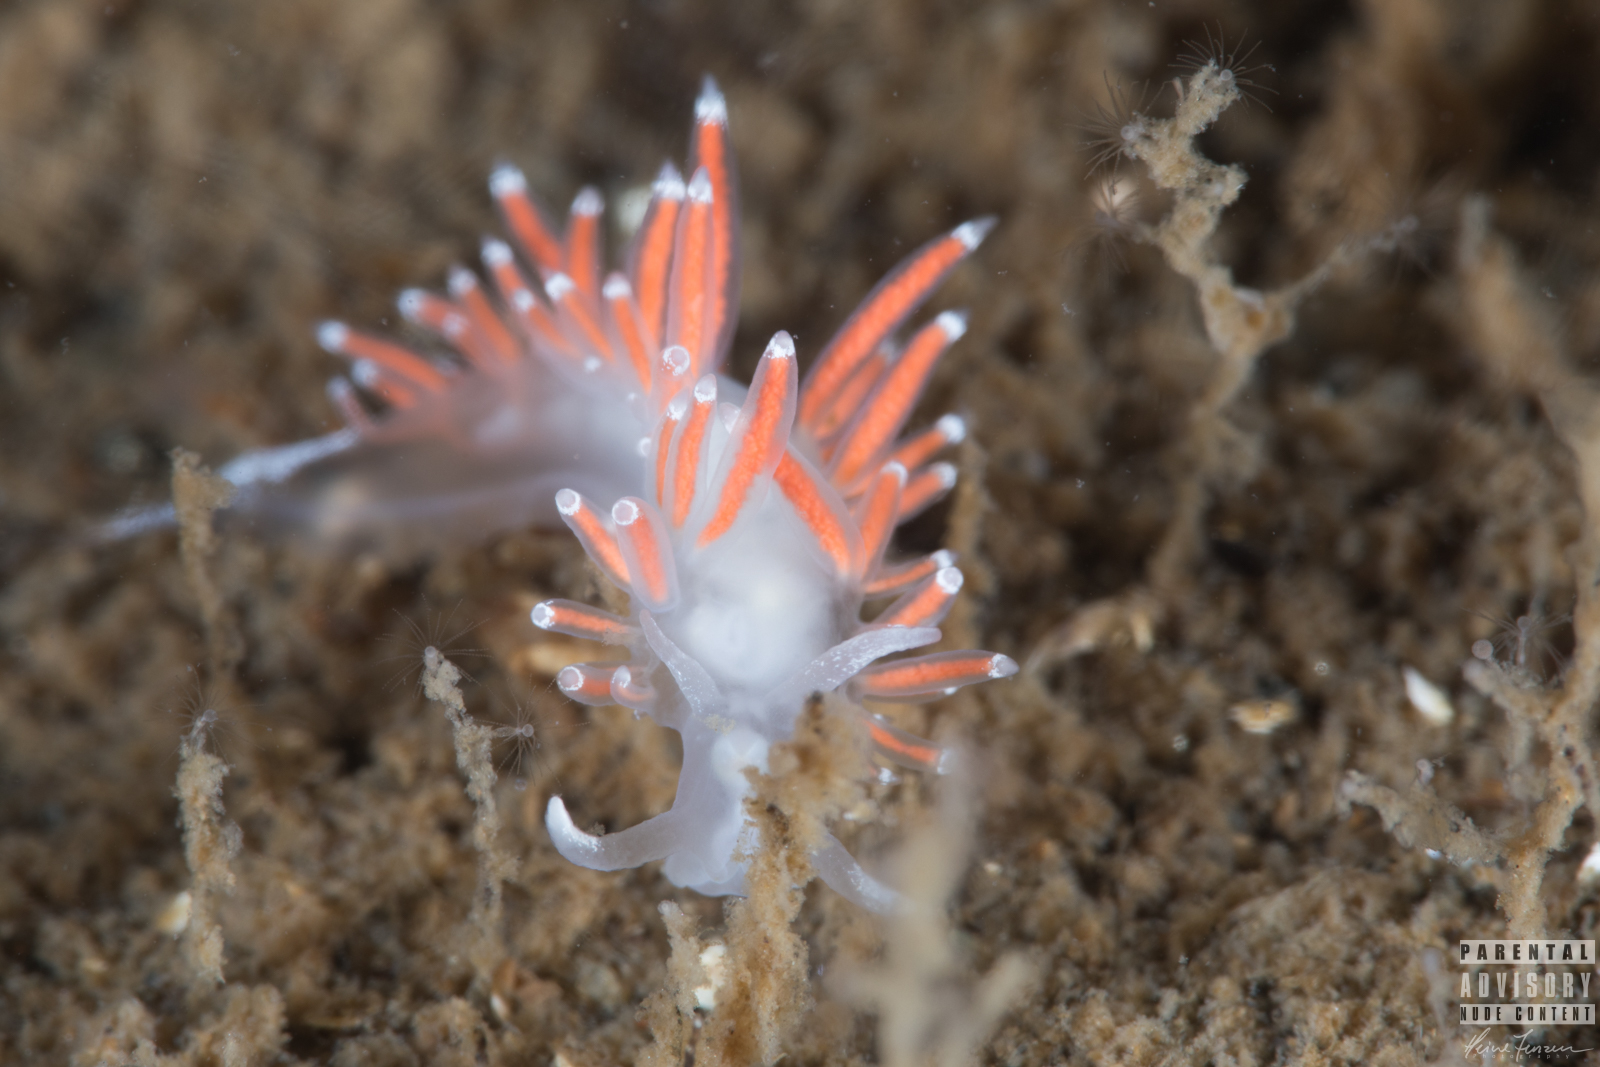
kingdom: Animalia
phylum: Mollusca
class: Gastropoda
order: Nudibranchia
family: Coryphellidae
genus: Coryphella
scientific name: Coryphella gracilis
